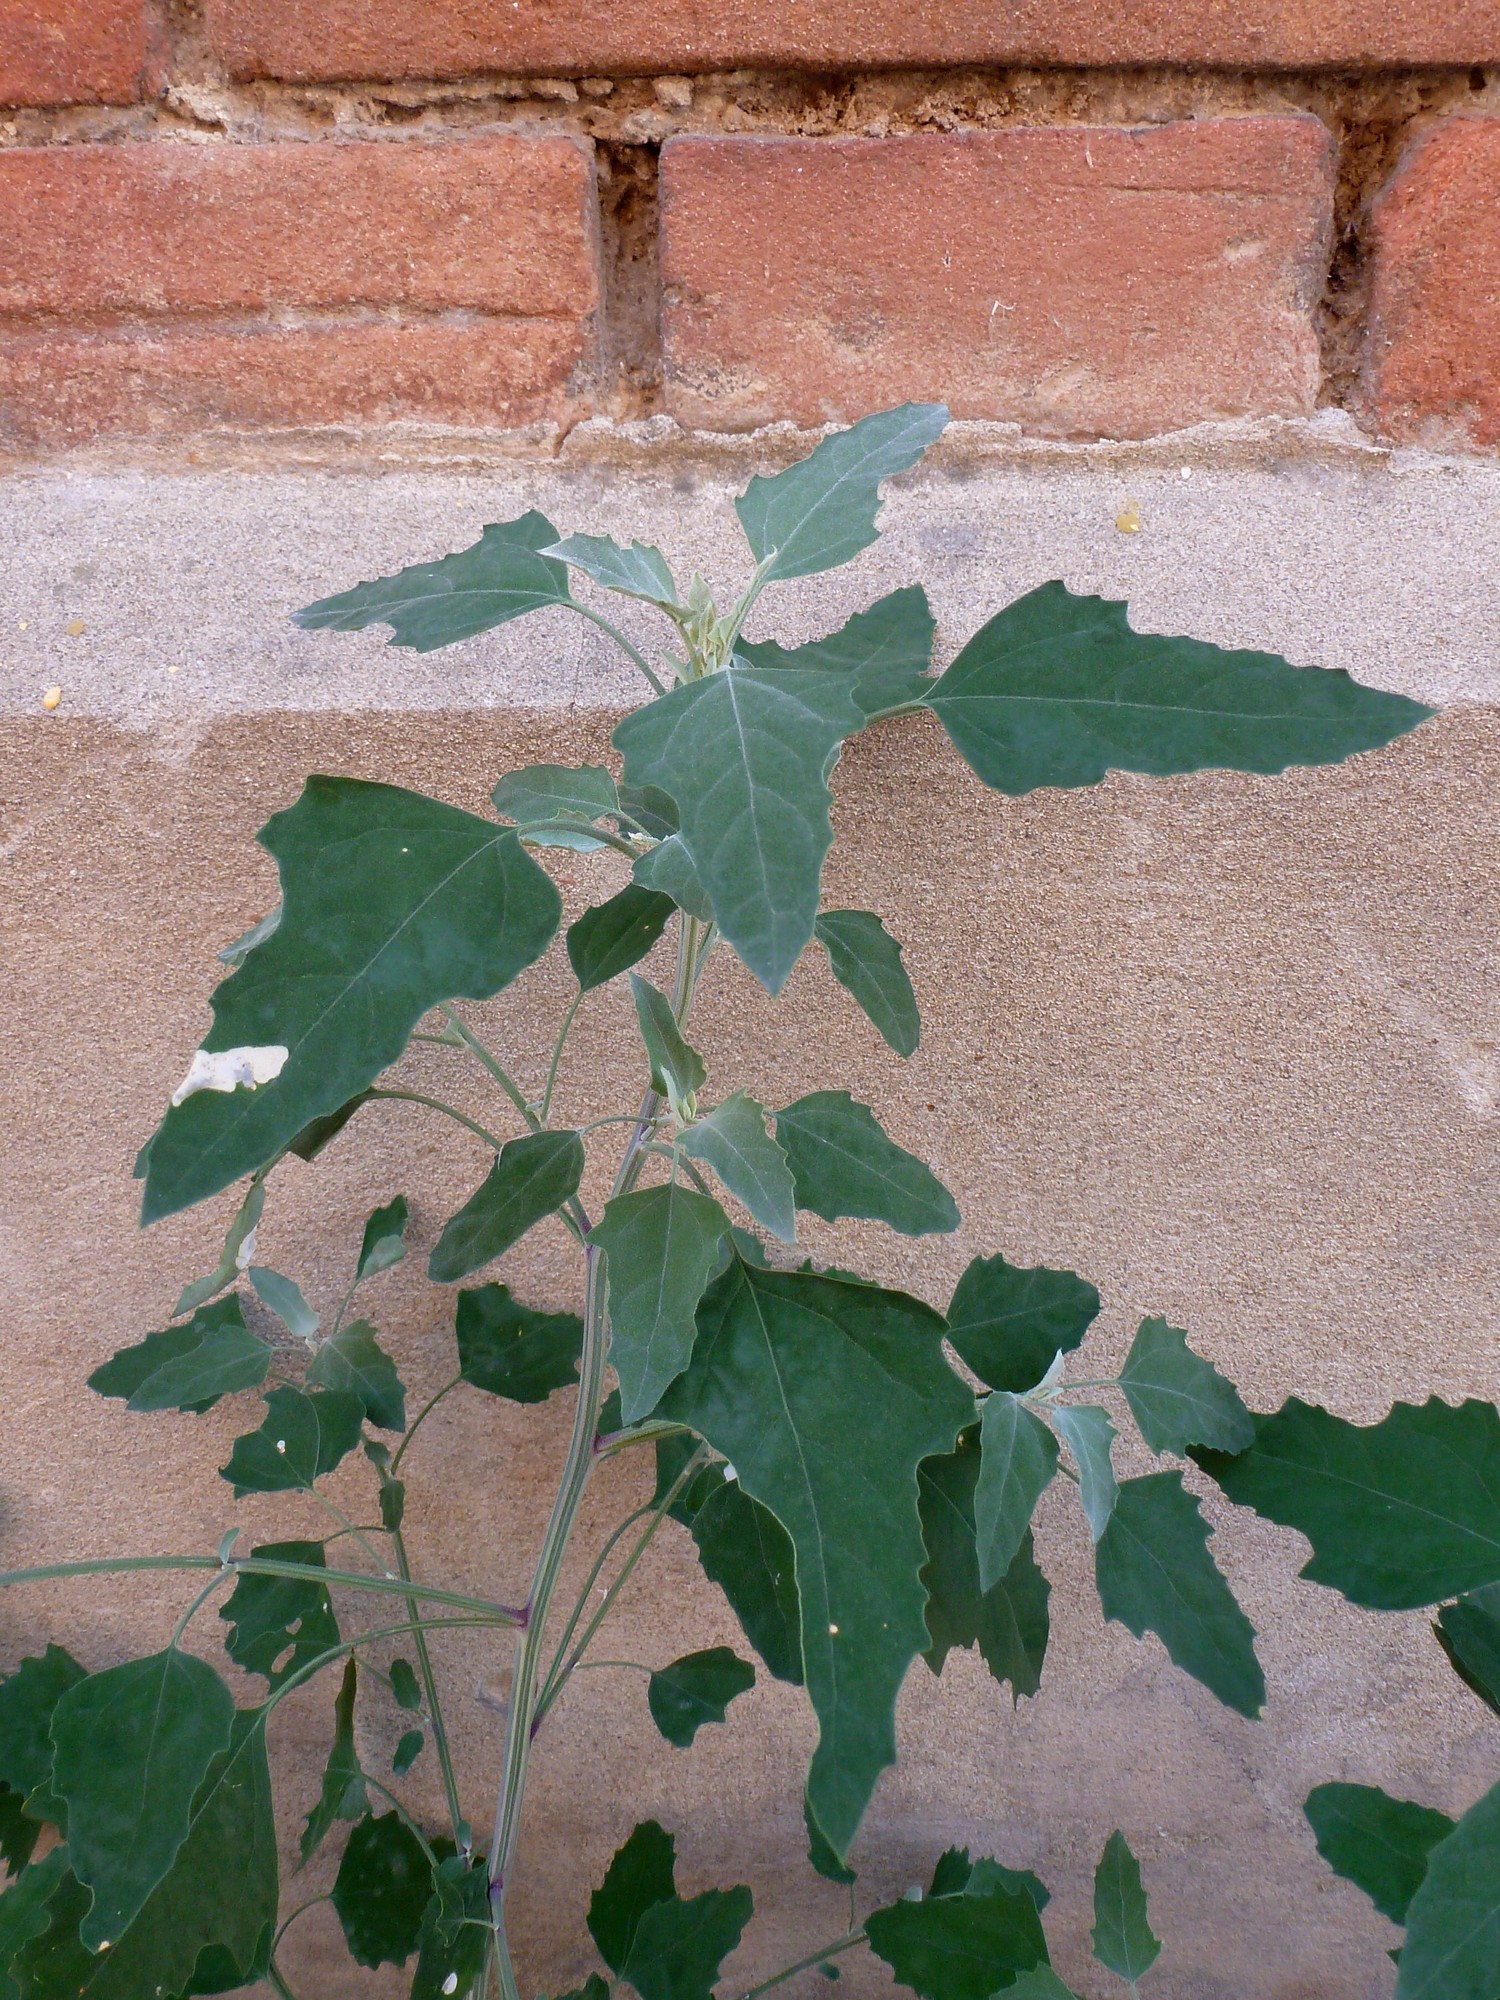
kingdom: Plantae
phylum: Tracheophyta
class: Magnoliopsida
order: Caryophyllales
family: Amaranthaceae
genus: Chenopodium
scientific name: Chenopodium album
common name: Fat-hen
